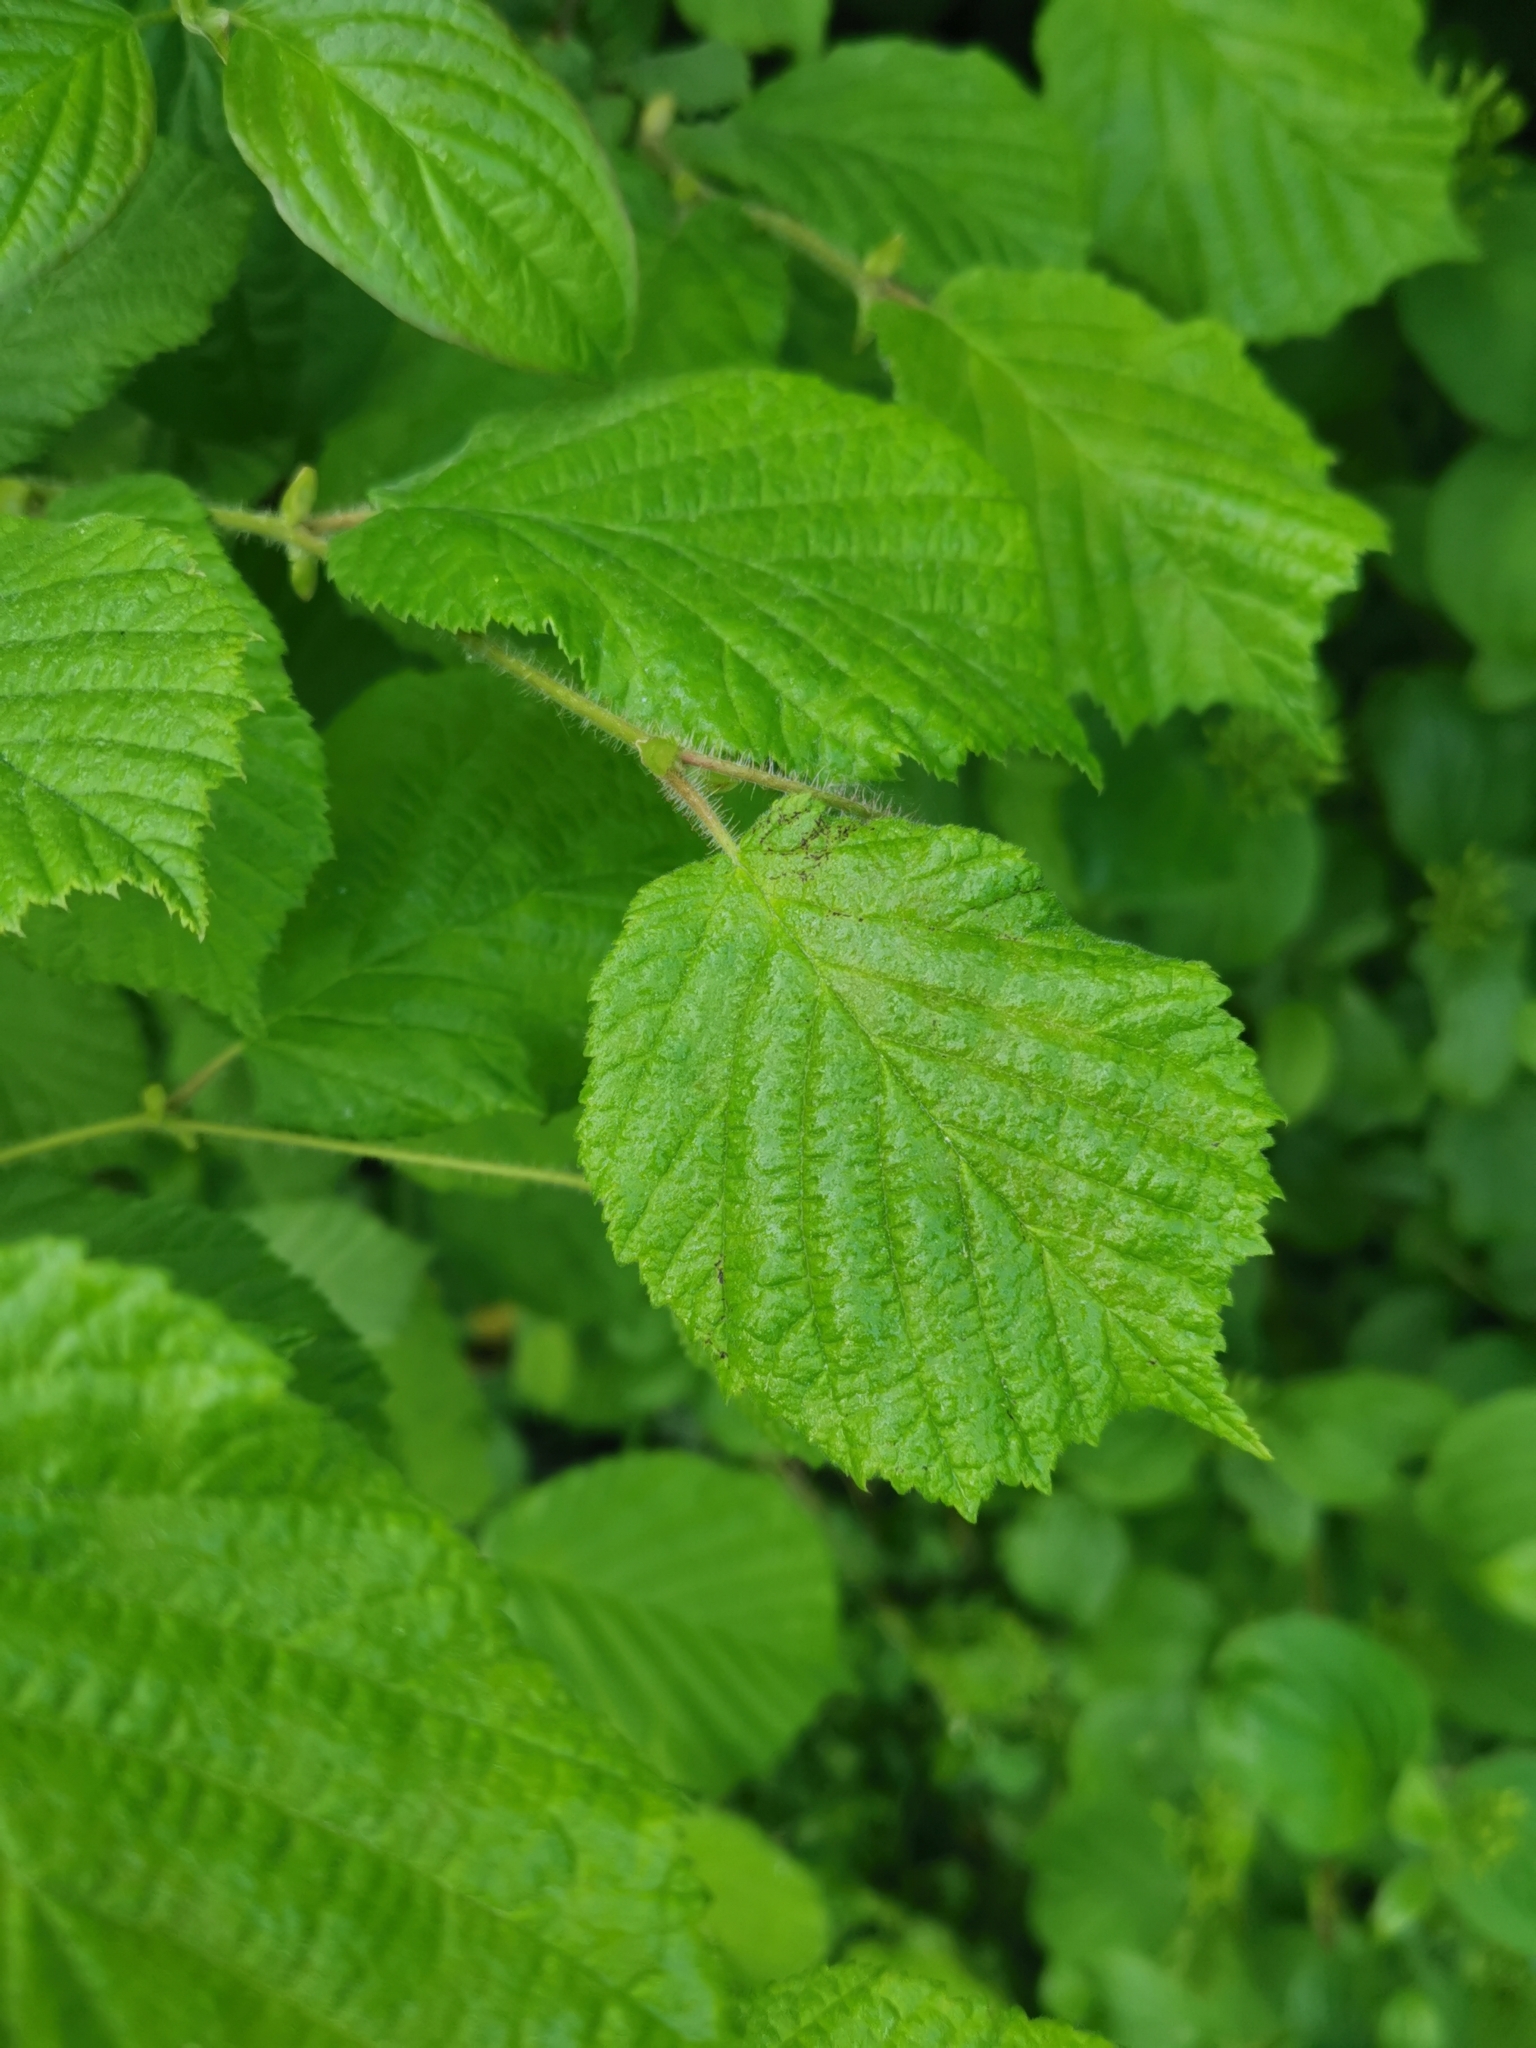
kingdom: Plantae
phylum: Tracheophyta
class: Magnoliopsida
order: Fagales
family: Betulaceae
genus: Corylus
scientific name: Corylus avellana
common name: European hazel
